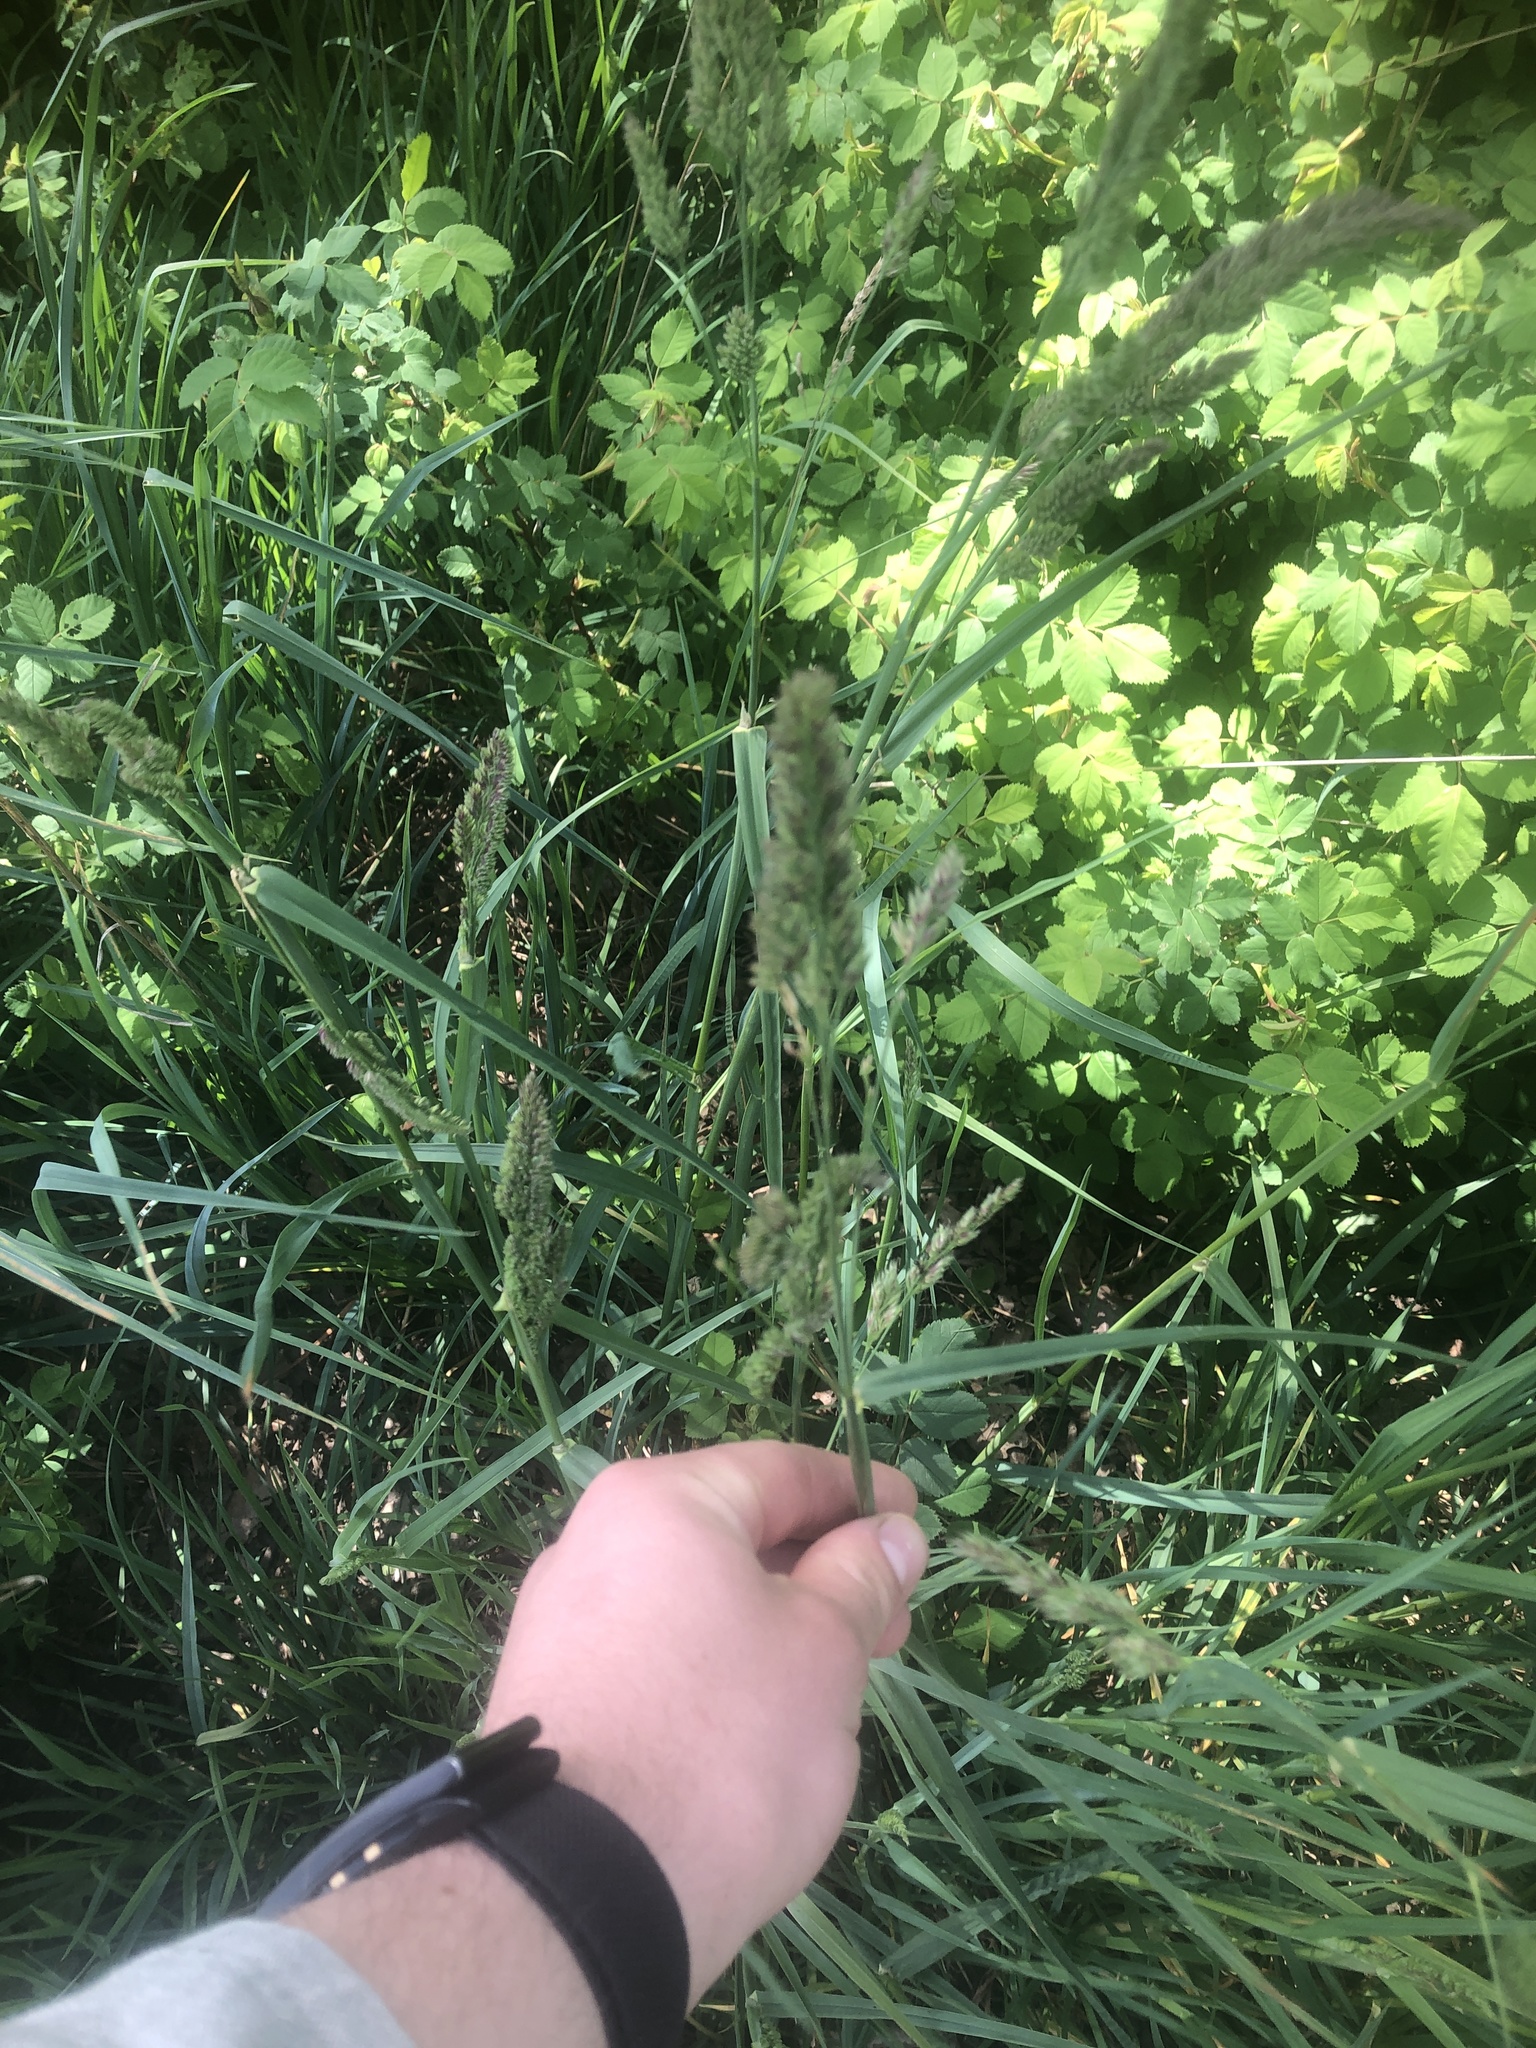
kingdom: Plantae
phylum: Tracheophyta
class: Liliopsida
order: Poales
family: Poaceae
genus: Dactylis
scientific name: Dactylis glomerata
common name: Orchardgrass
